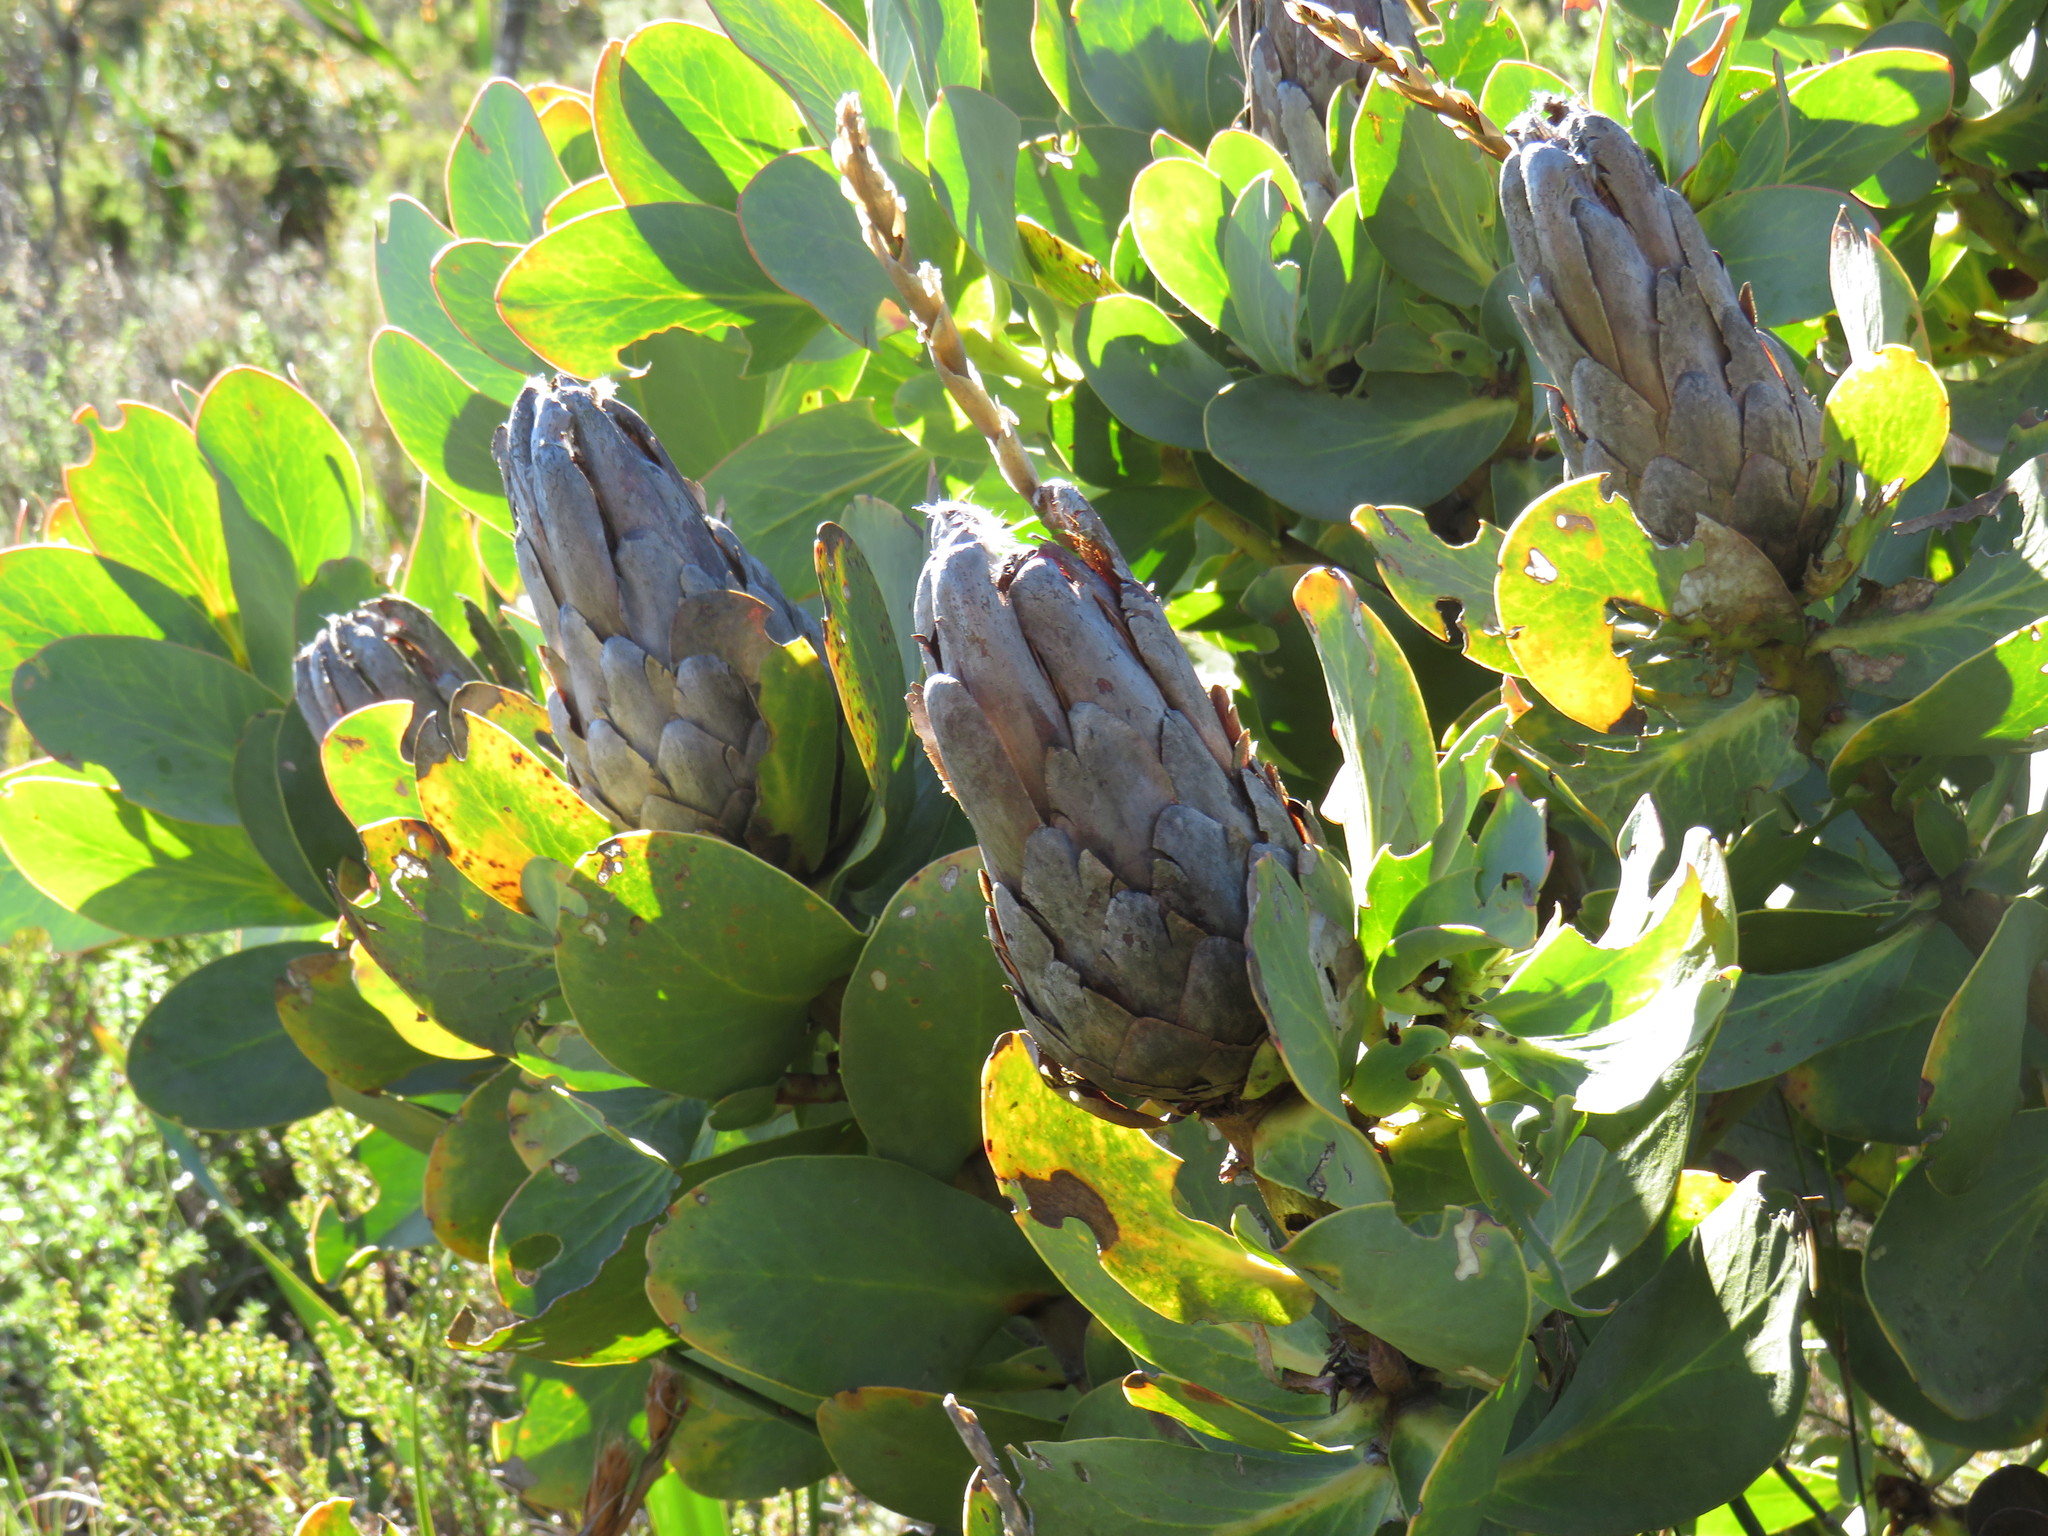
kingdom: Plantae
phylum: Tracheophyta
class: Magnoliopsida
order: Proteales
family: Proteaceae
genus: Protea
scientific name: Protea grandiceps
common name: Red sugarbush
